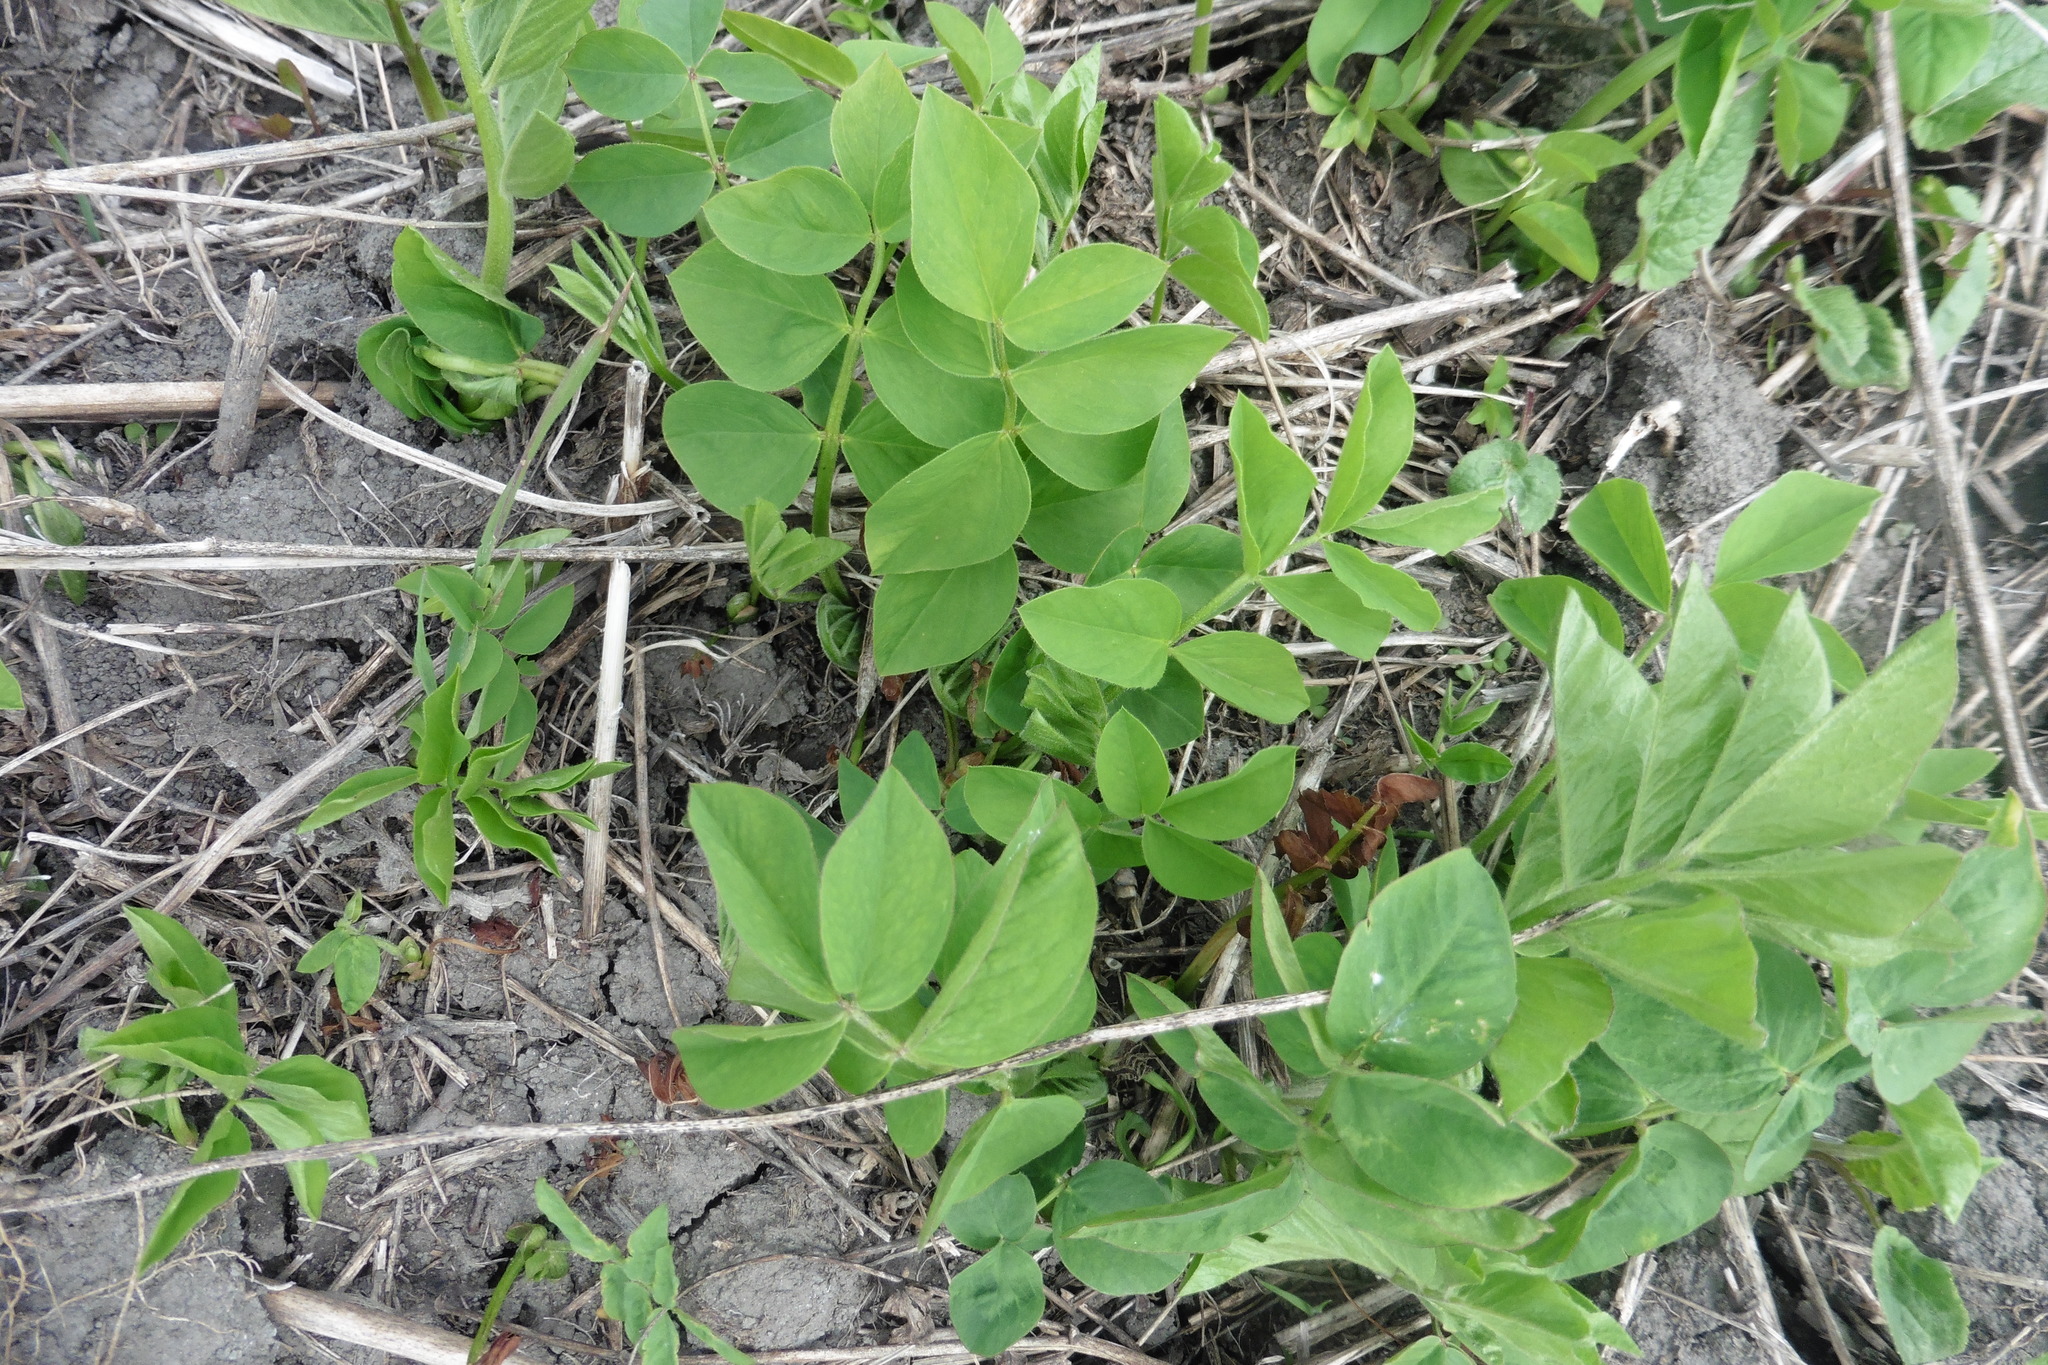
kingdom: Plantae
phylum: Tracheophyta
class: Magnoliopsida
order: Fabales
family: Fabaceae
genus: Galega
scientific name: Galega orientalis
